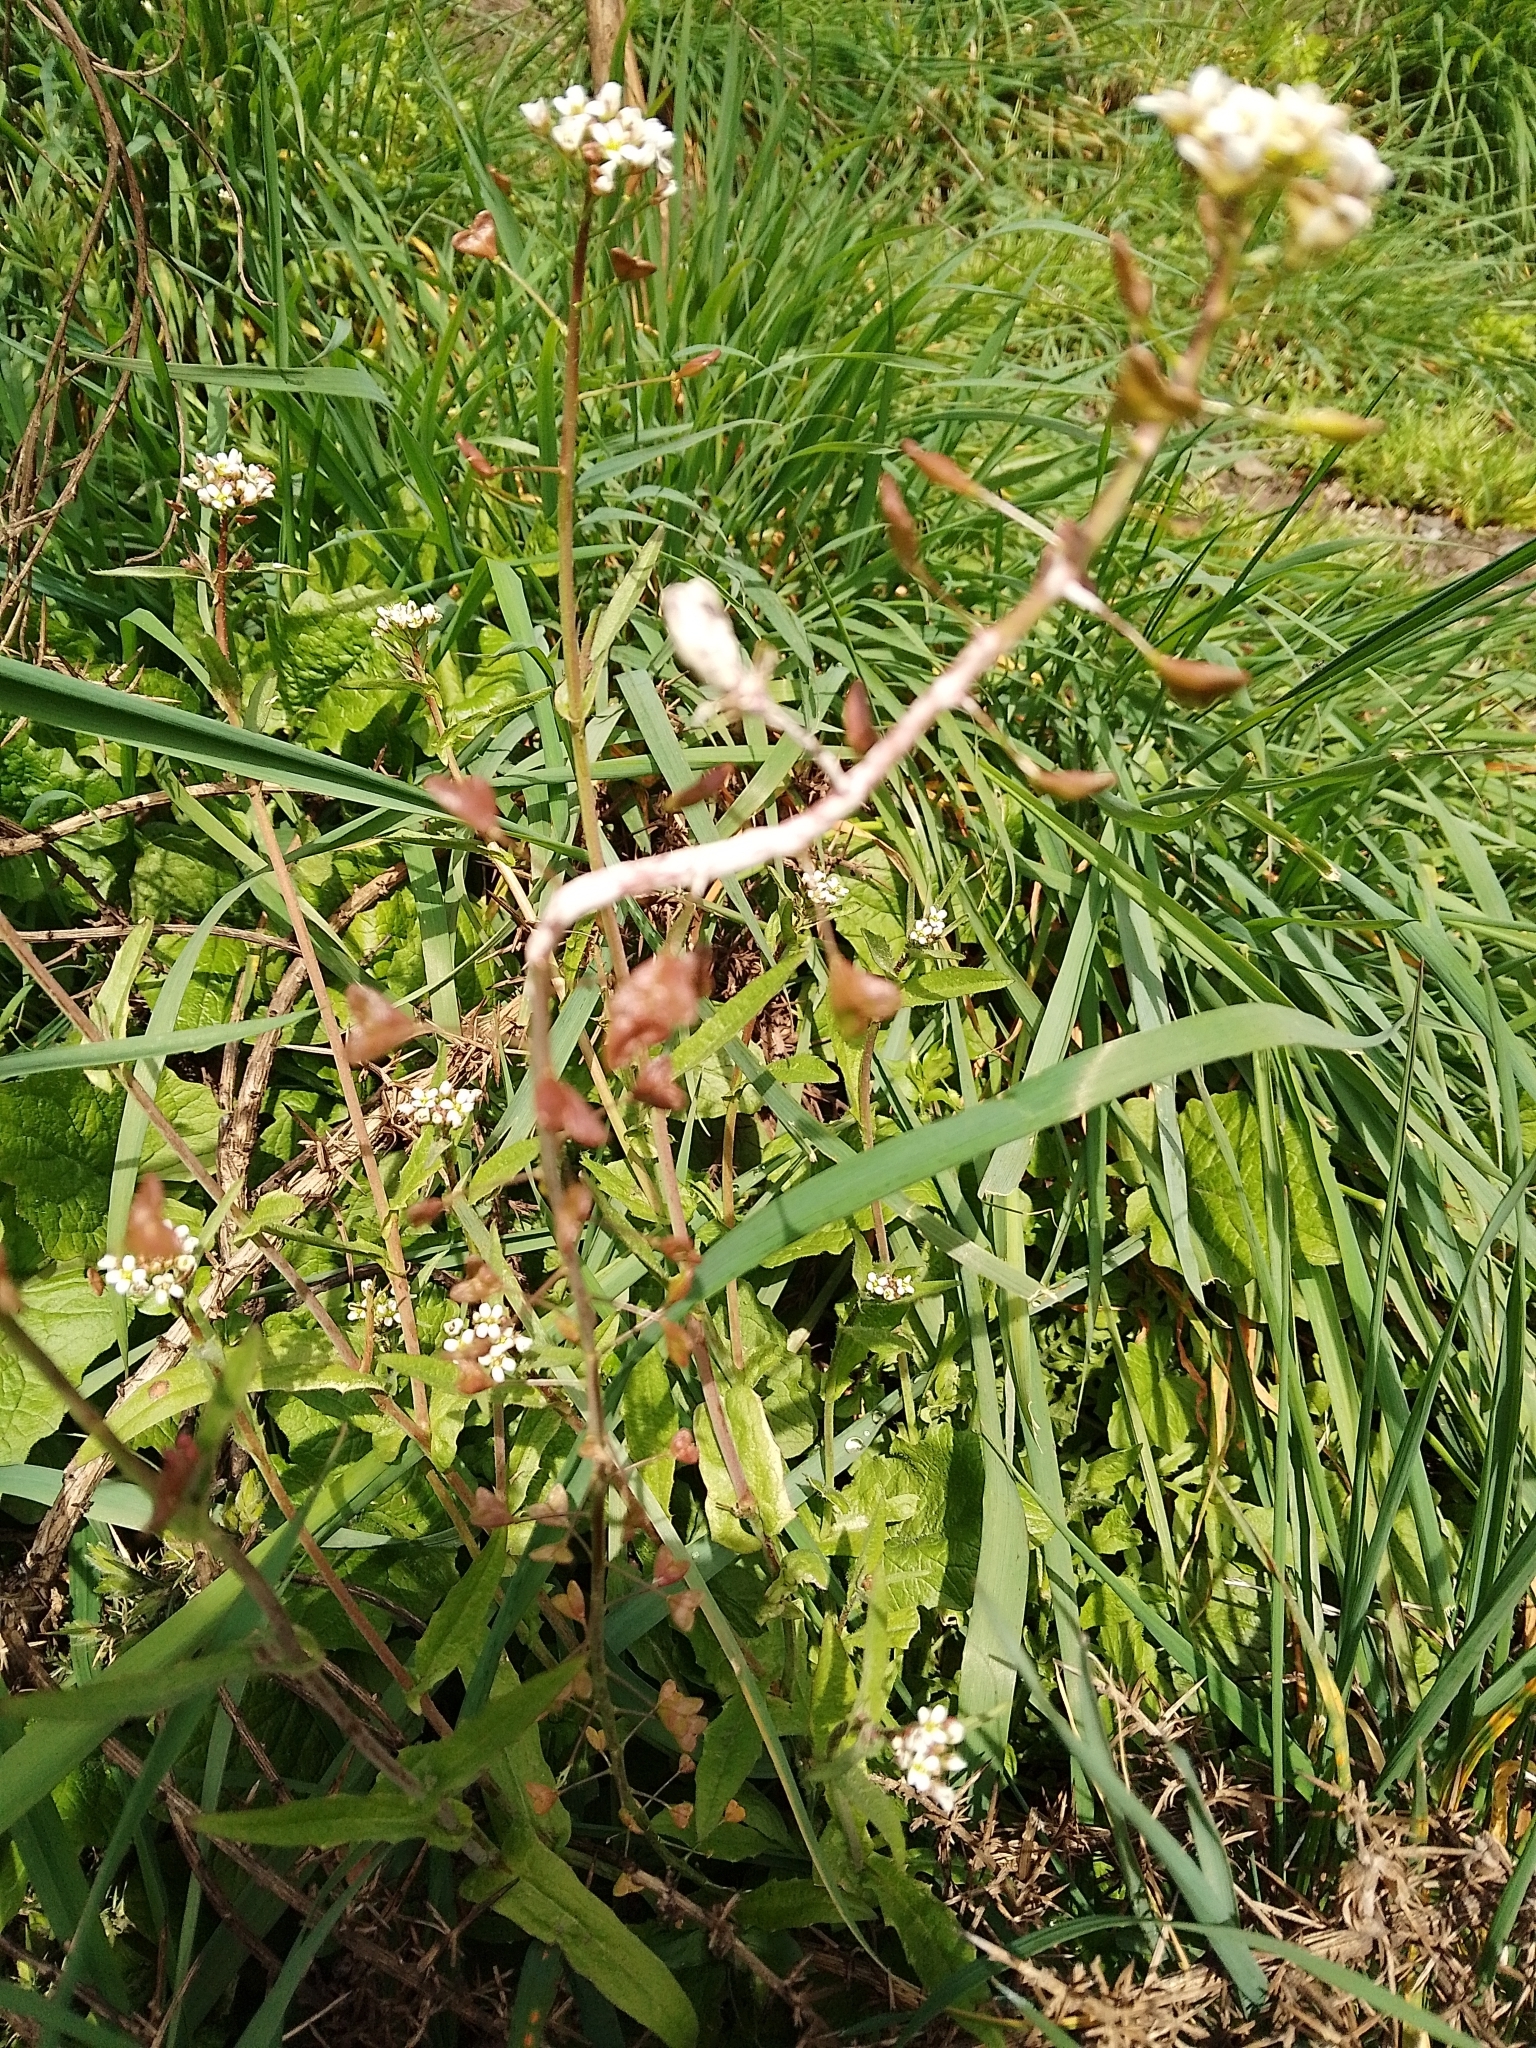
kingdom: Plantae
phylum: Tracheophyta
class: Magnoliopsida
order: Brassicales
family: Brassicaceae
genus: Capsella
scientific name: Capsella bursa-pastoris
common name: Shepherd's purse
